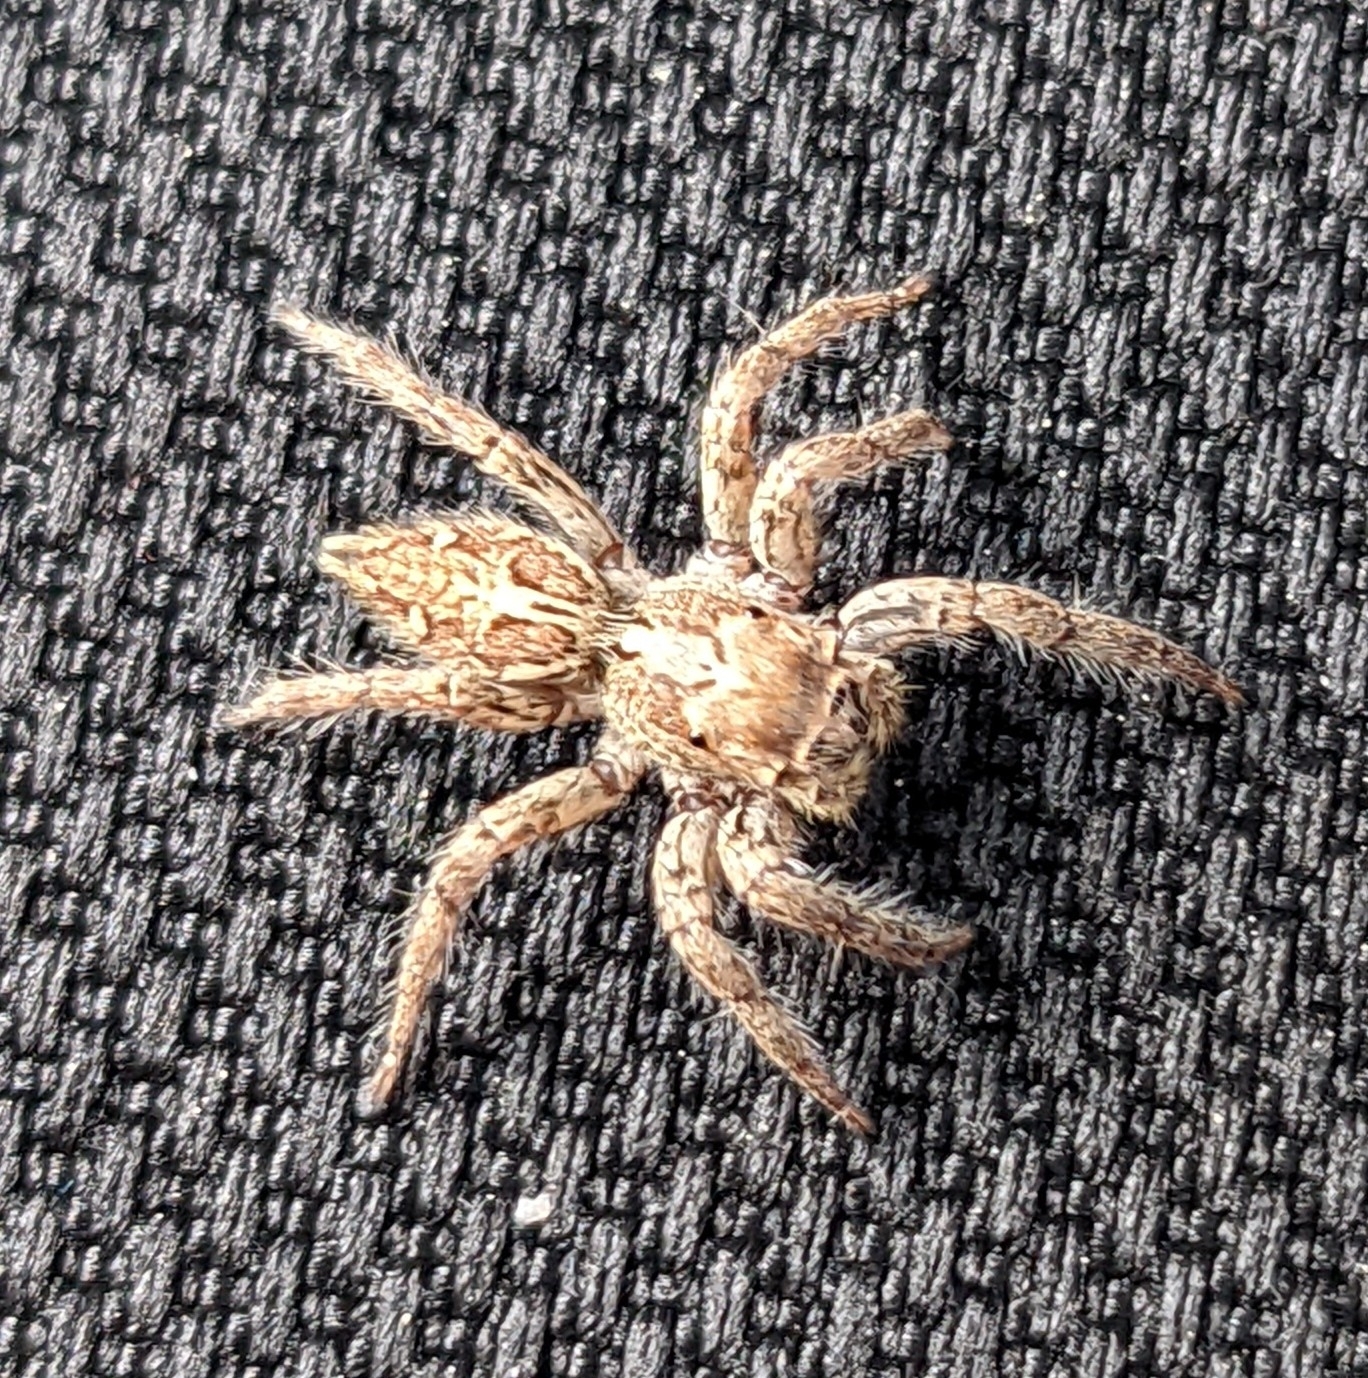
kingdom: Animalia
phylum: Arthropoda
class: Arachnida
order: Araneae
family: Salticidae
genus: Plexippus
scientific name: Plexippus paykulli
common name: Pantropical jumper
